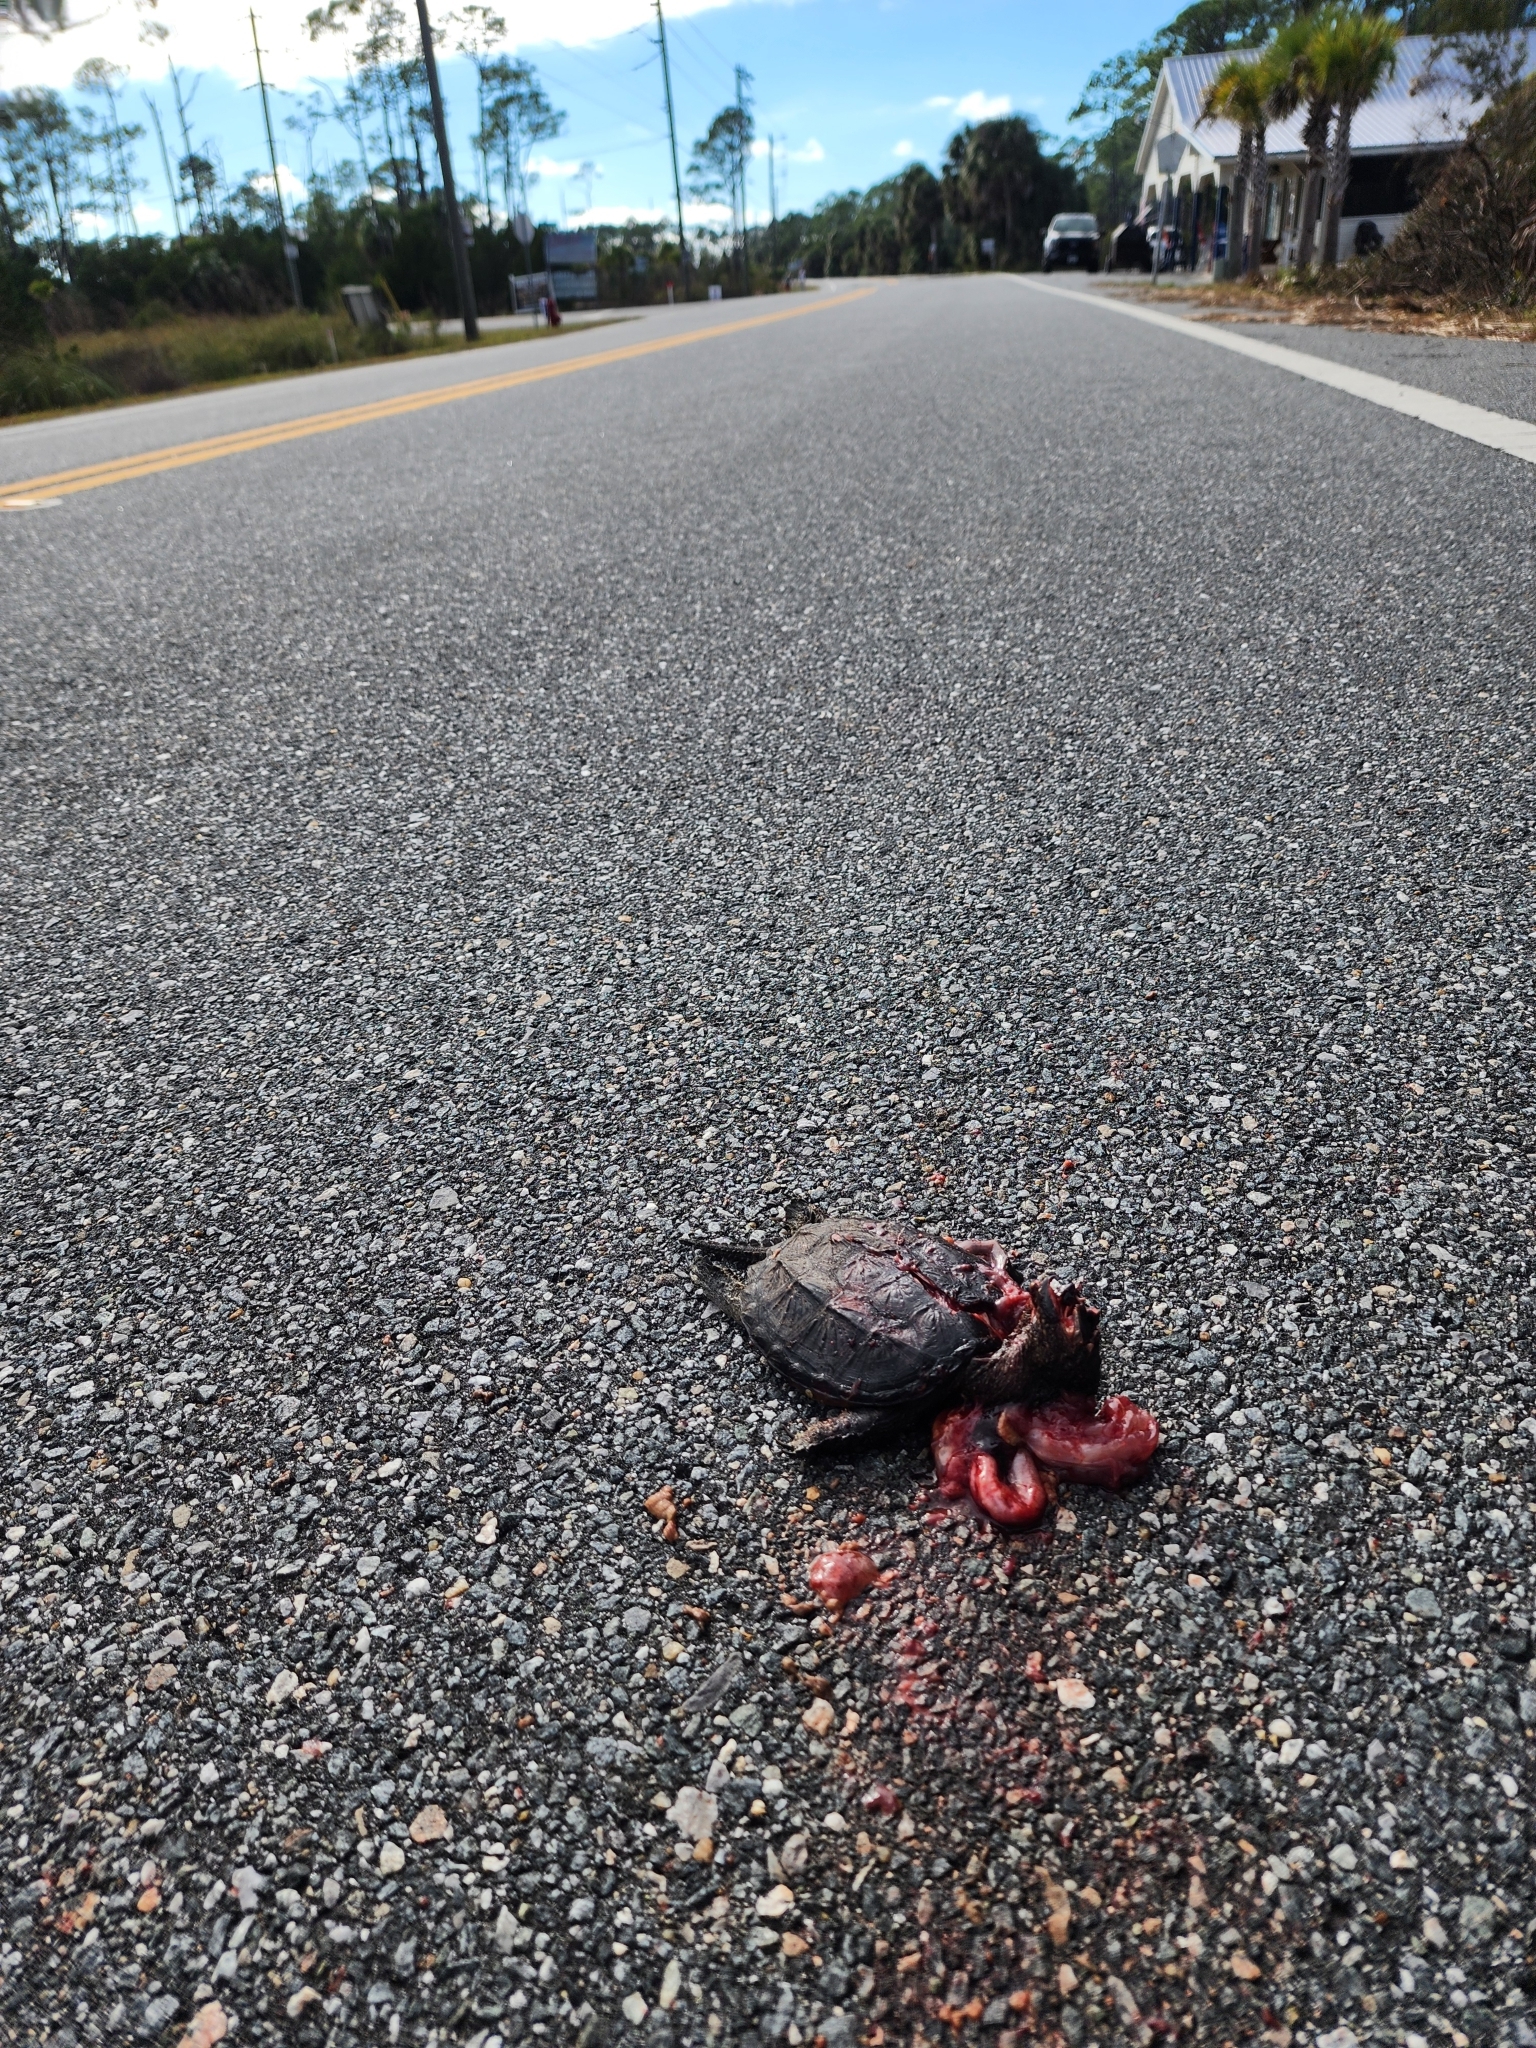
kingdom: Animalia
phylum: Chordata
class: Testudines
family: Chelydridae
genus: Chelydra
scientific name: Chelydra serpentina
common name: Common snapping turtle
